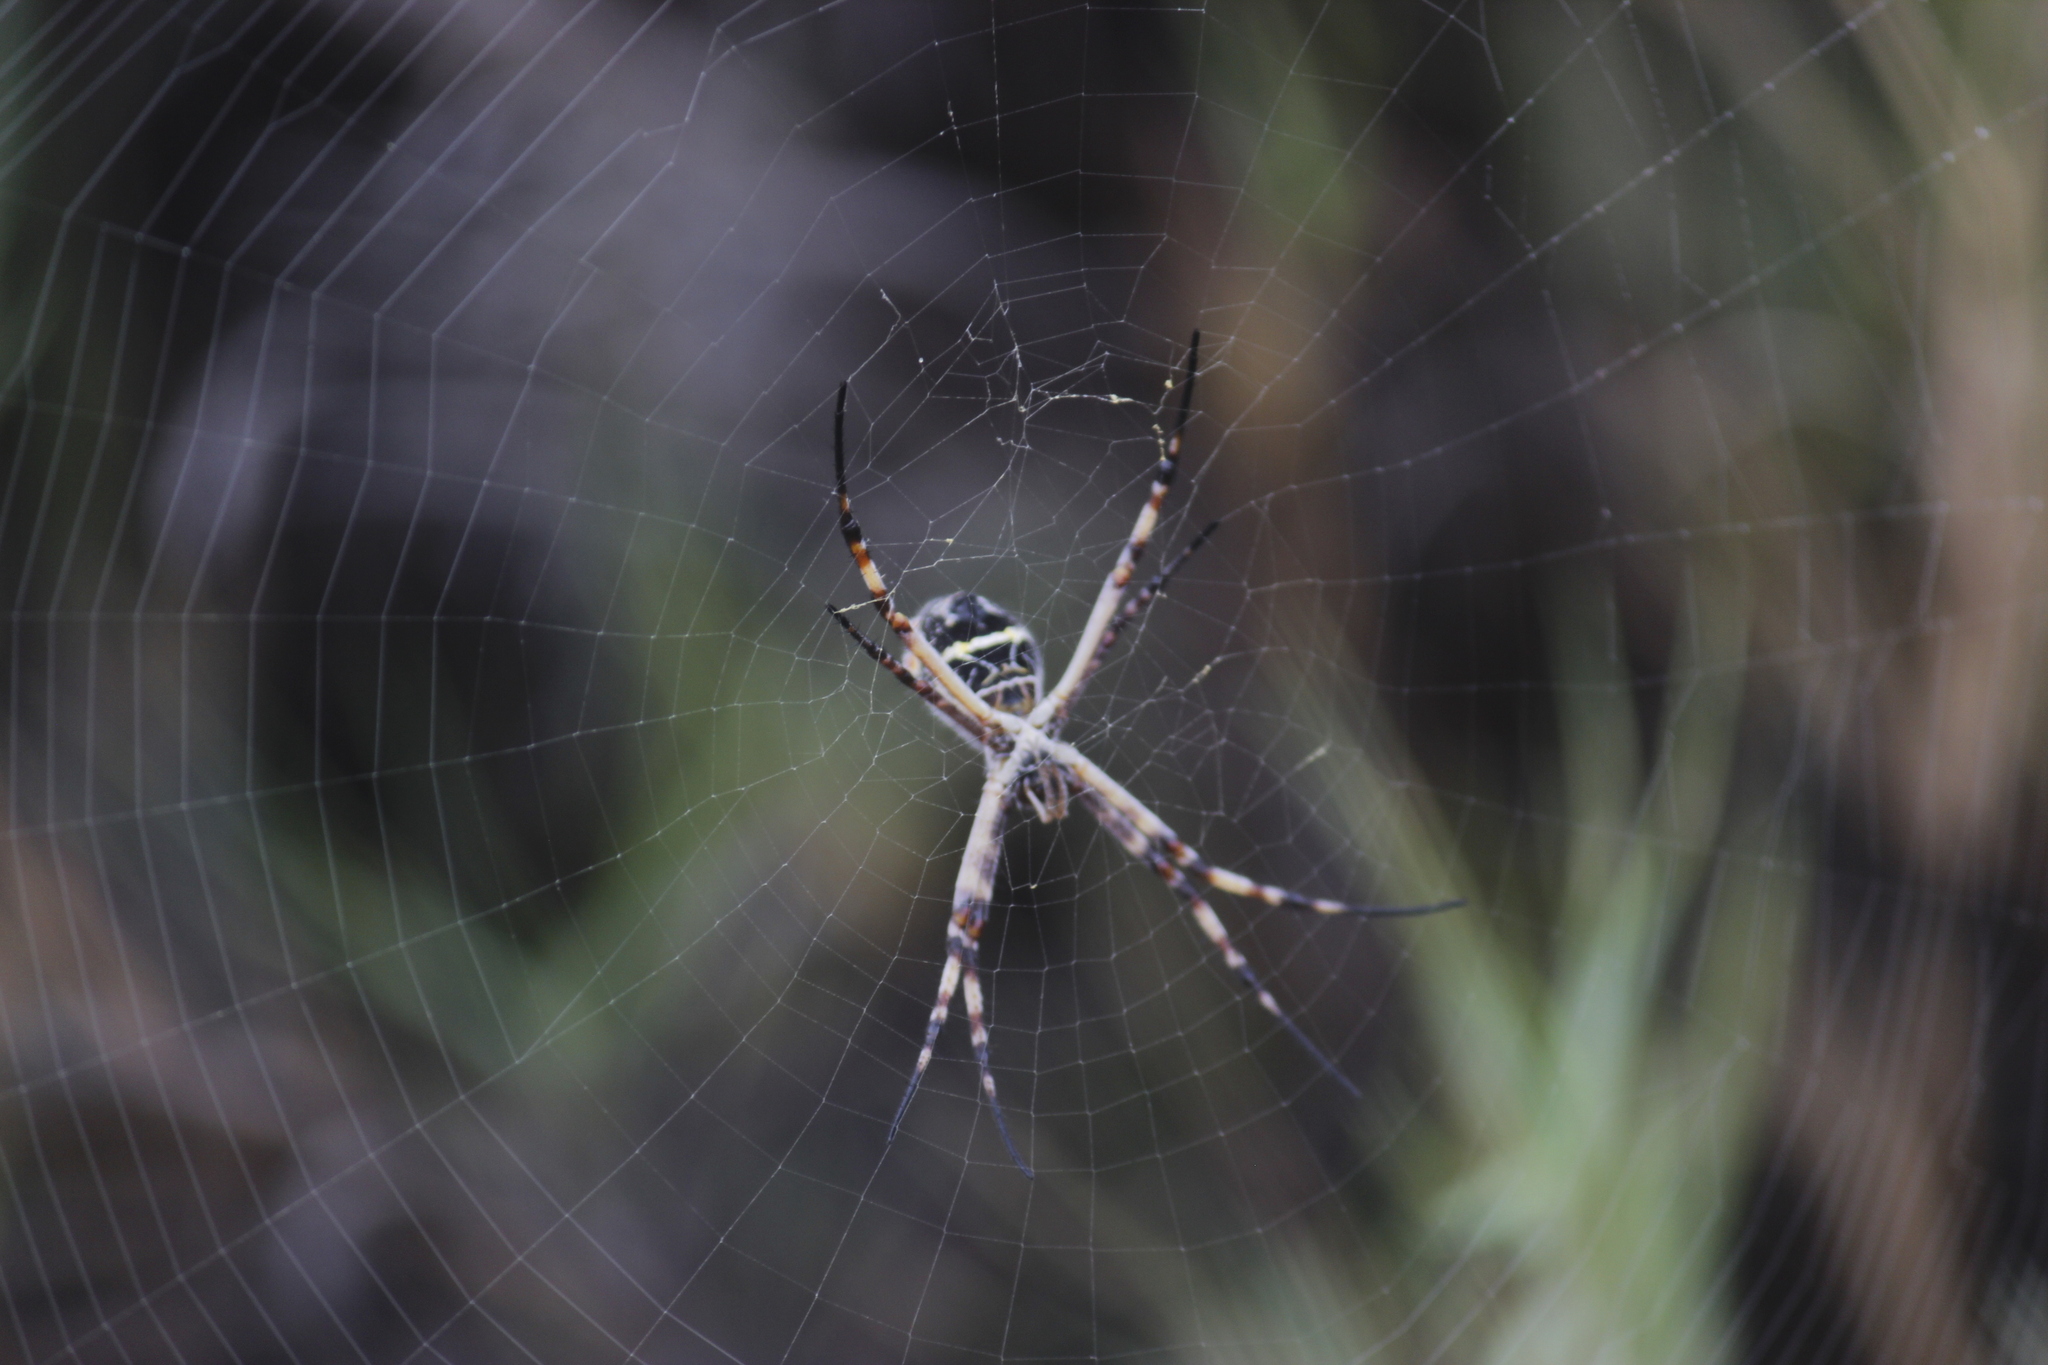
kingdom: Animalia
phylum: Arthropoda
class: Arachnida
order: Araneae
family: Araneidae
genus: Argiope
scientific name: Argiope argentata
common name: Orb weavers
